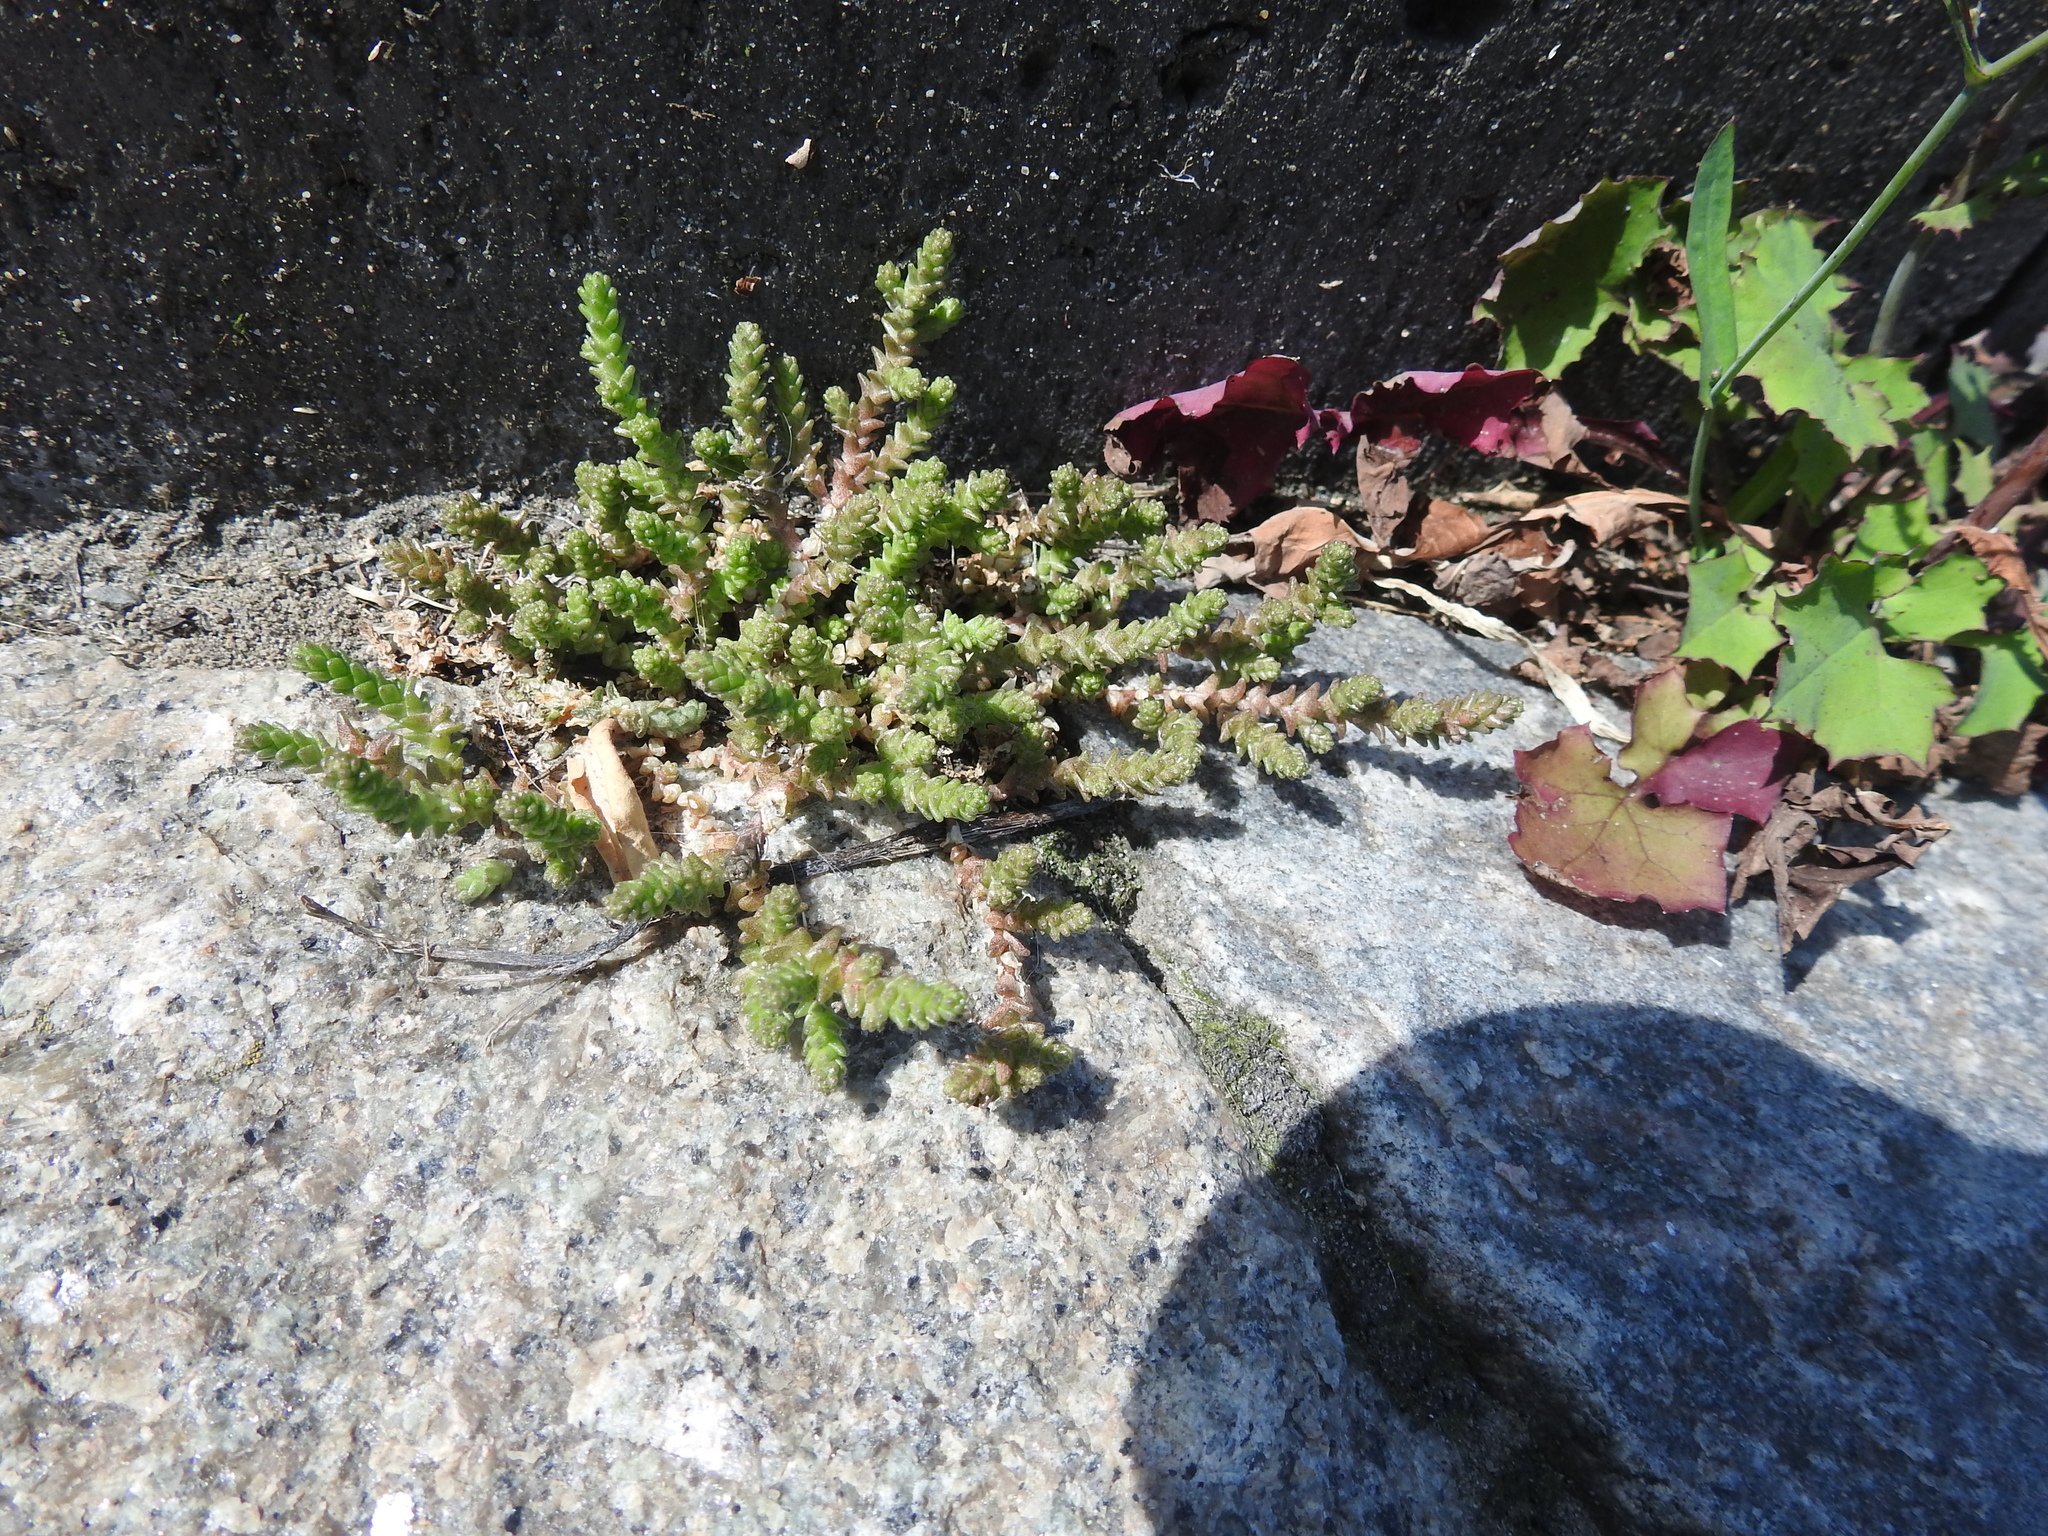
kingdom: Plantae
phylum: Tracheophyta
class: Magnoliopsida
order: Saxifragales
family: Crassulaceae
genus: Sedum
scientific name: Sedum acre
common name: Biting stonecrop
